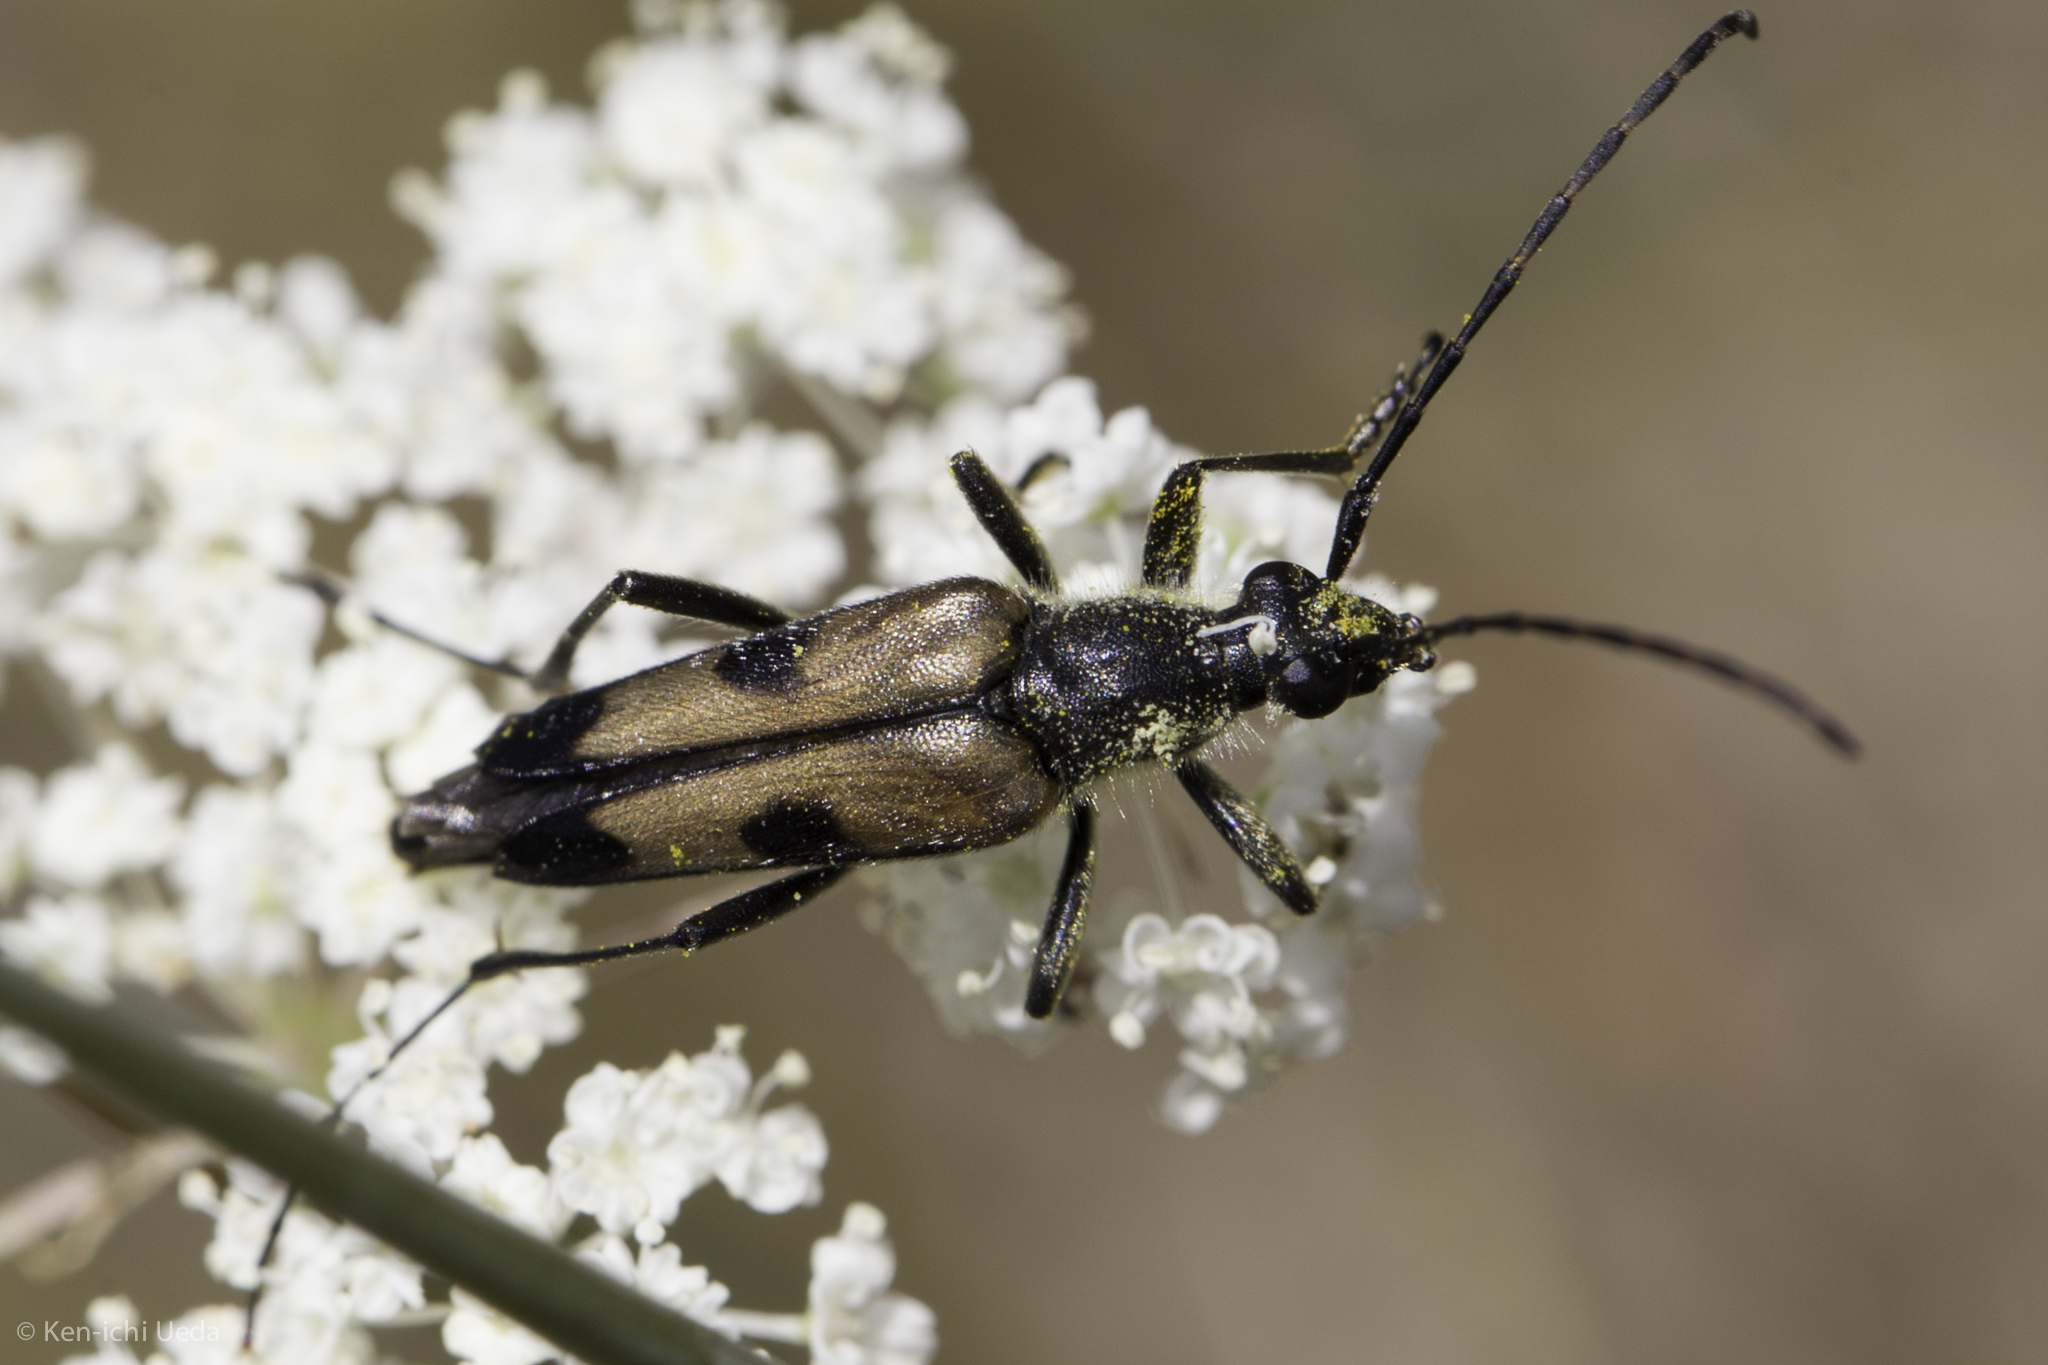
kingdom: Animalia
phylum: Arthropoda
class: Insecta
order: Coleoptera
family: Cerambycidae
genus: Etorofus
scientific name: Etorofus
